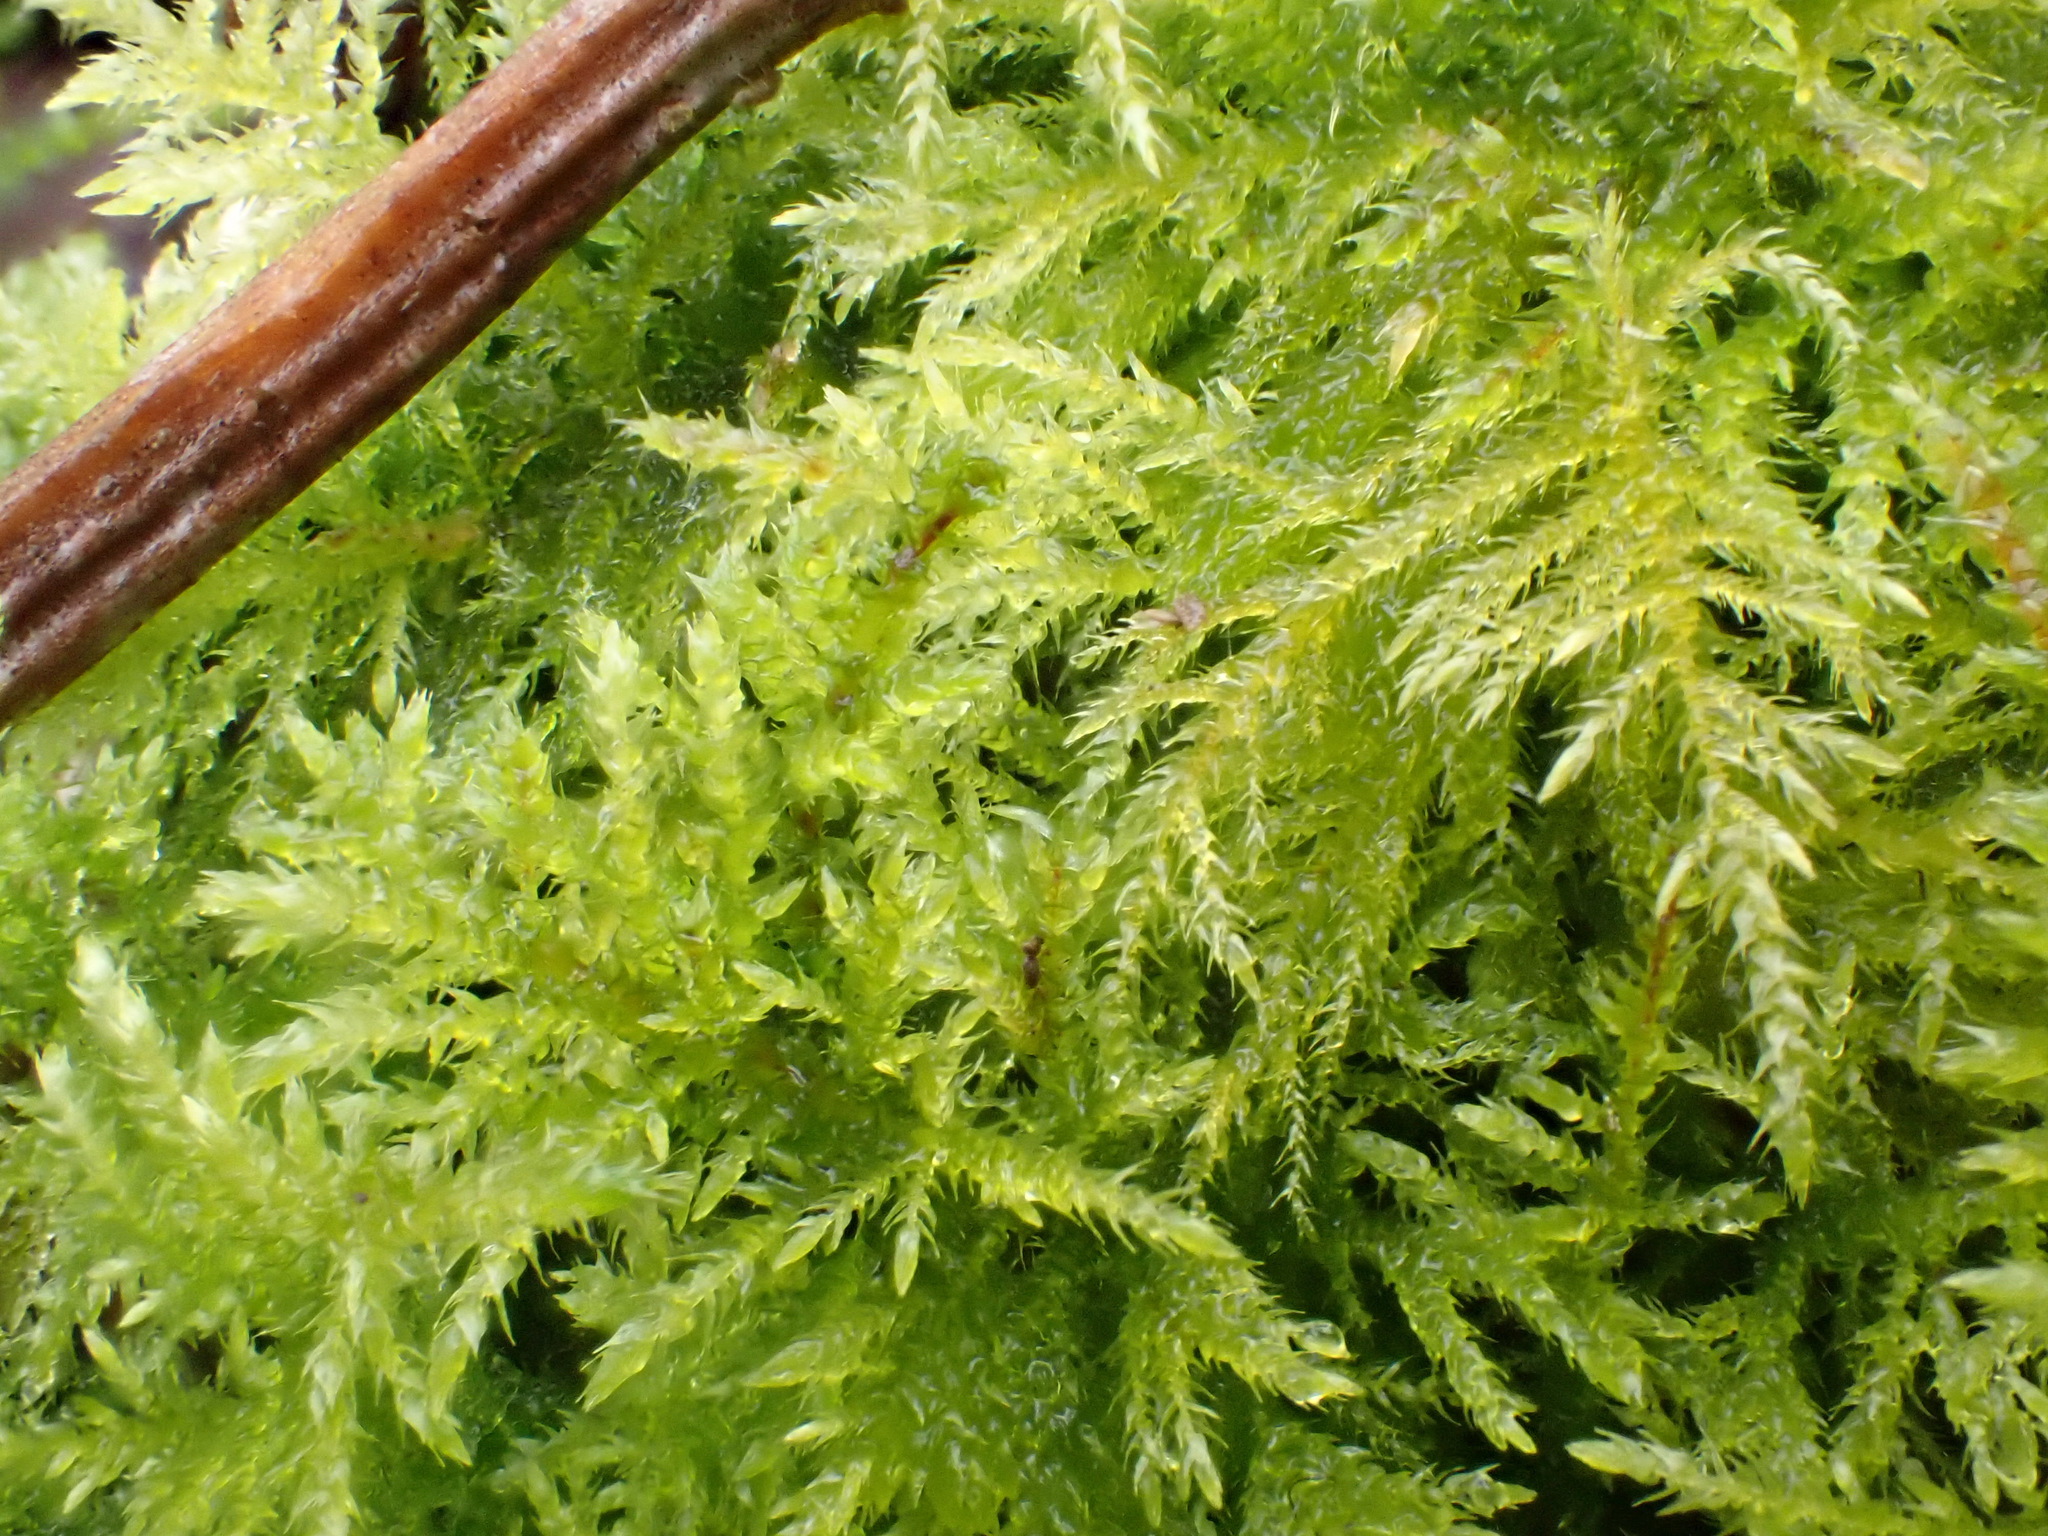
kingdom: Plantae
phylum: Bryophyta
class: Bryopsida
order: Hypnales
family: Brachytheciaceae
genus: Kindbergia
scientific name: Kindbergia praelonga
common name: Slender beaked moss
